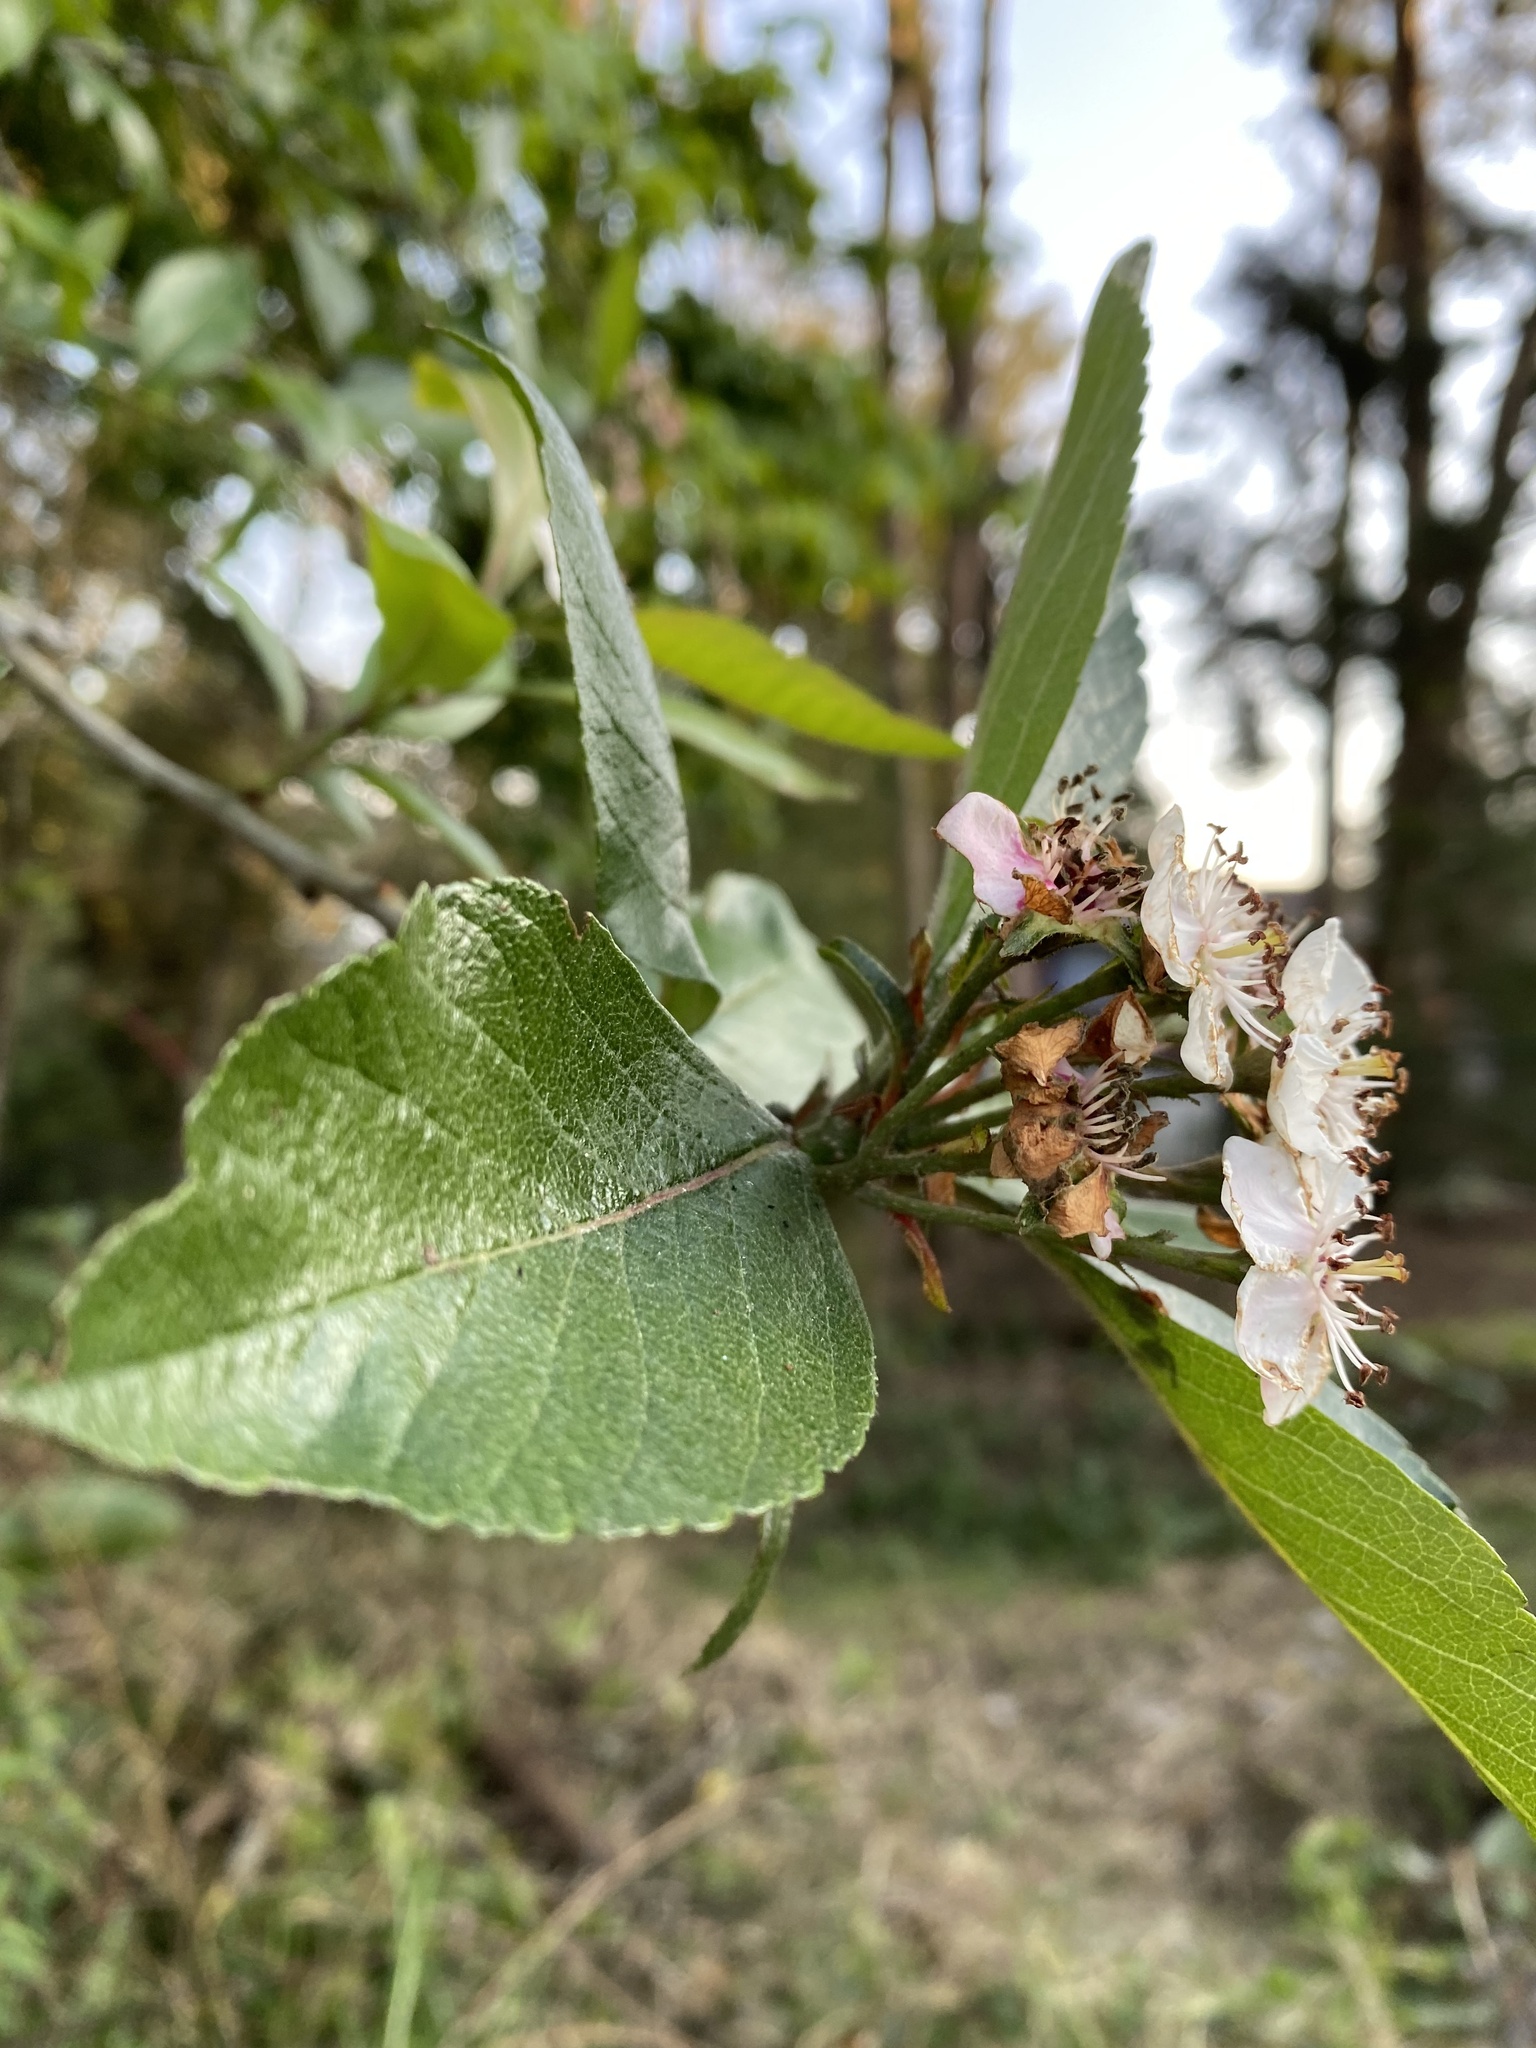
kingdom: Plantae
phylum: Tracheophyta
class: Magnoliopsida
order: Rosales
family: Rosaceae
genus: Crataegus
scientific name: Crataegus mexicana
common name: Mexican hawthorn
